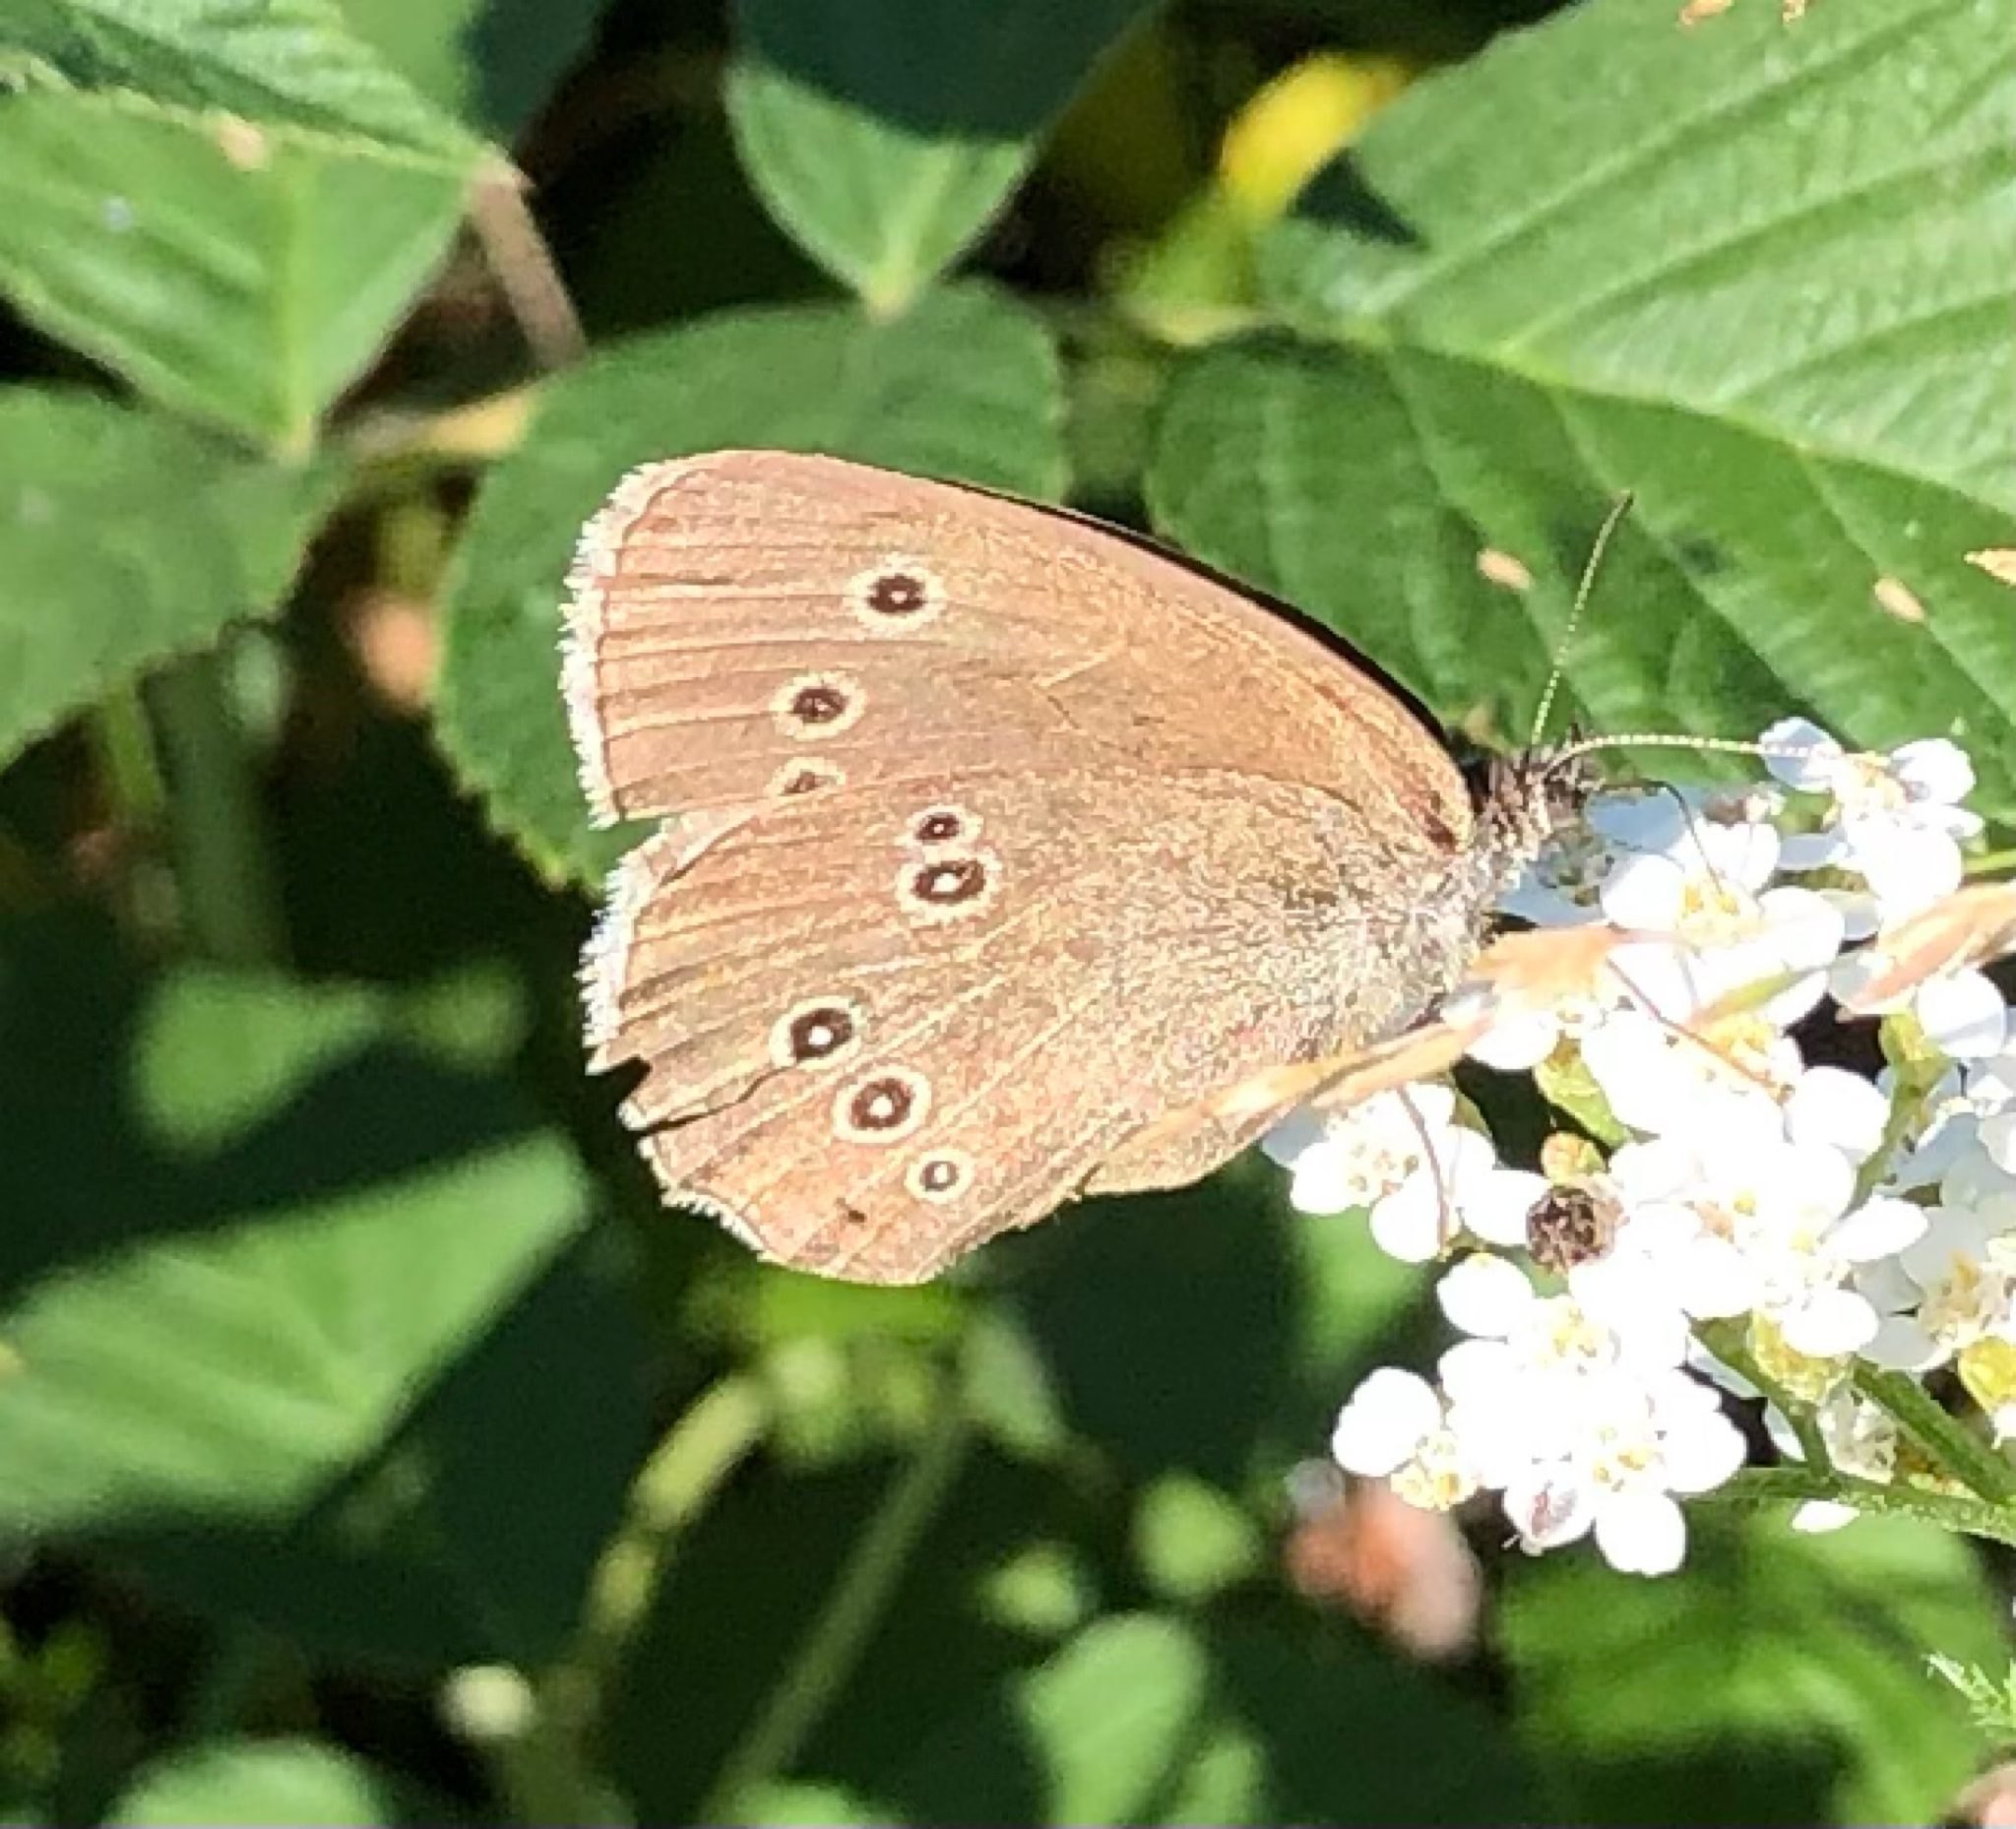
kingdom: Animalia
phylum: Arthropoda
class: Insecta
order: Lepidoptera
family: Nymphalidae
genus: Aphantopus
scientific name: Aphantopus hyperantus
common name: Ringlet
